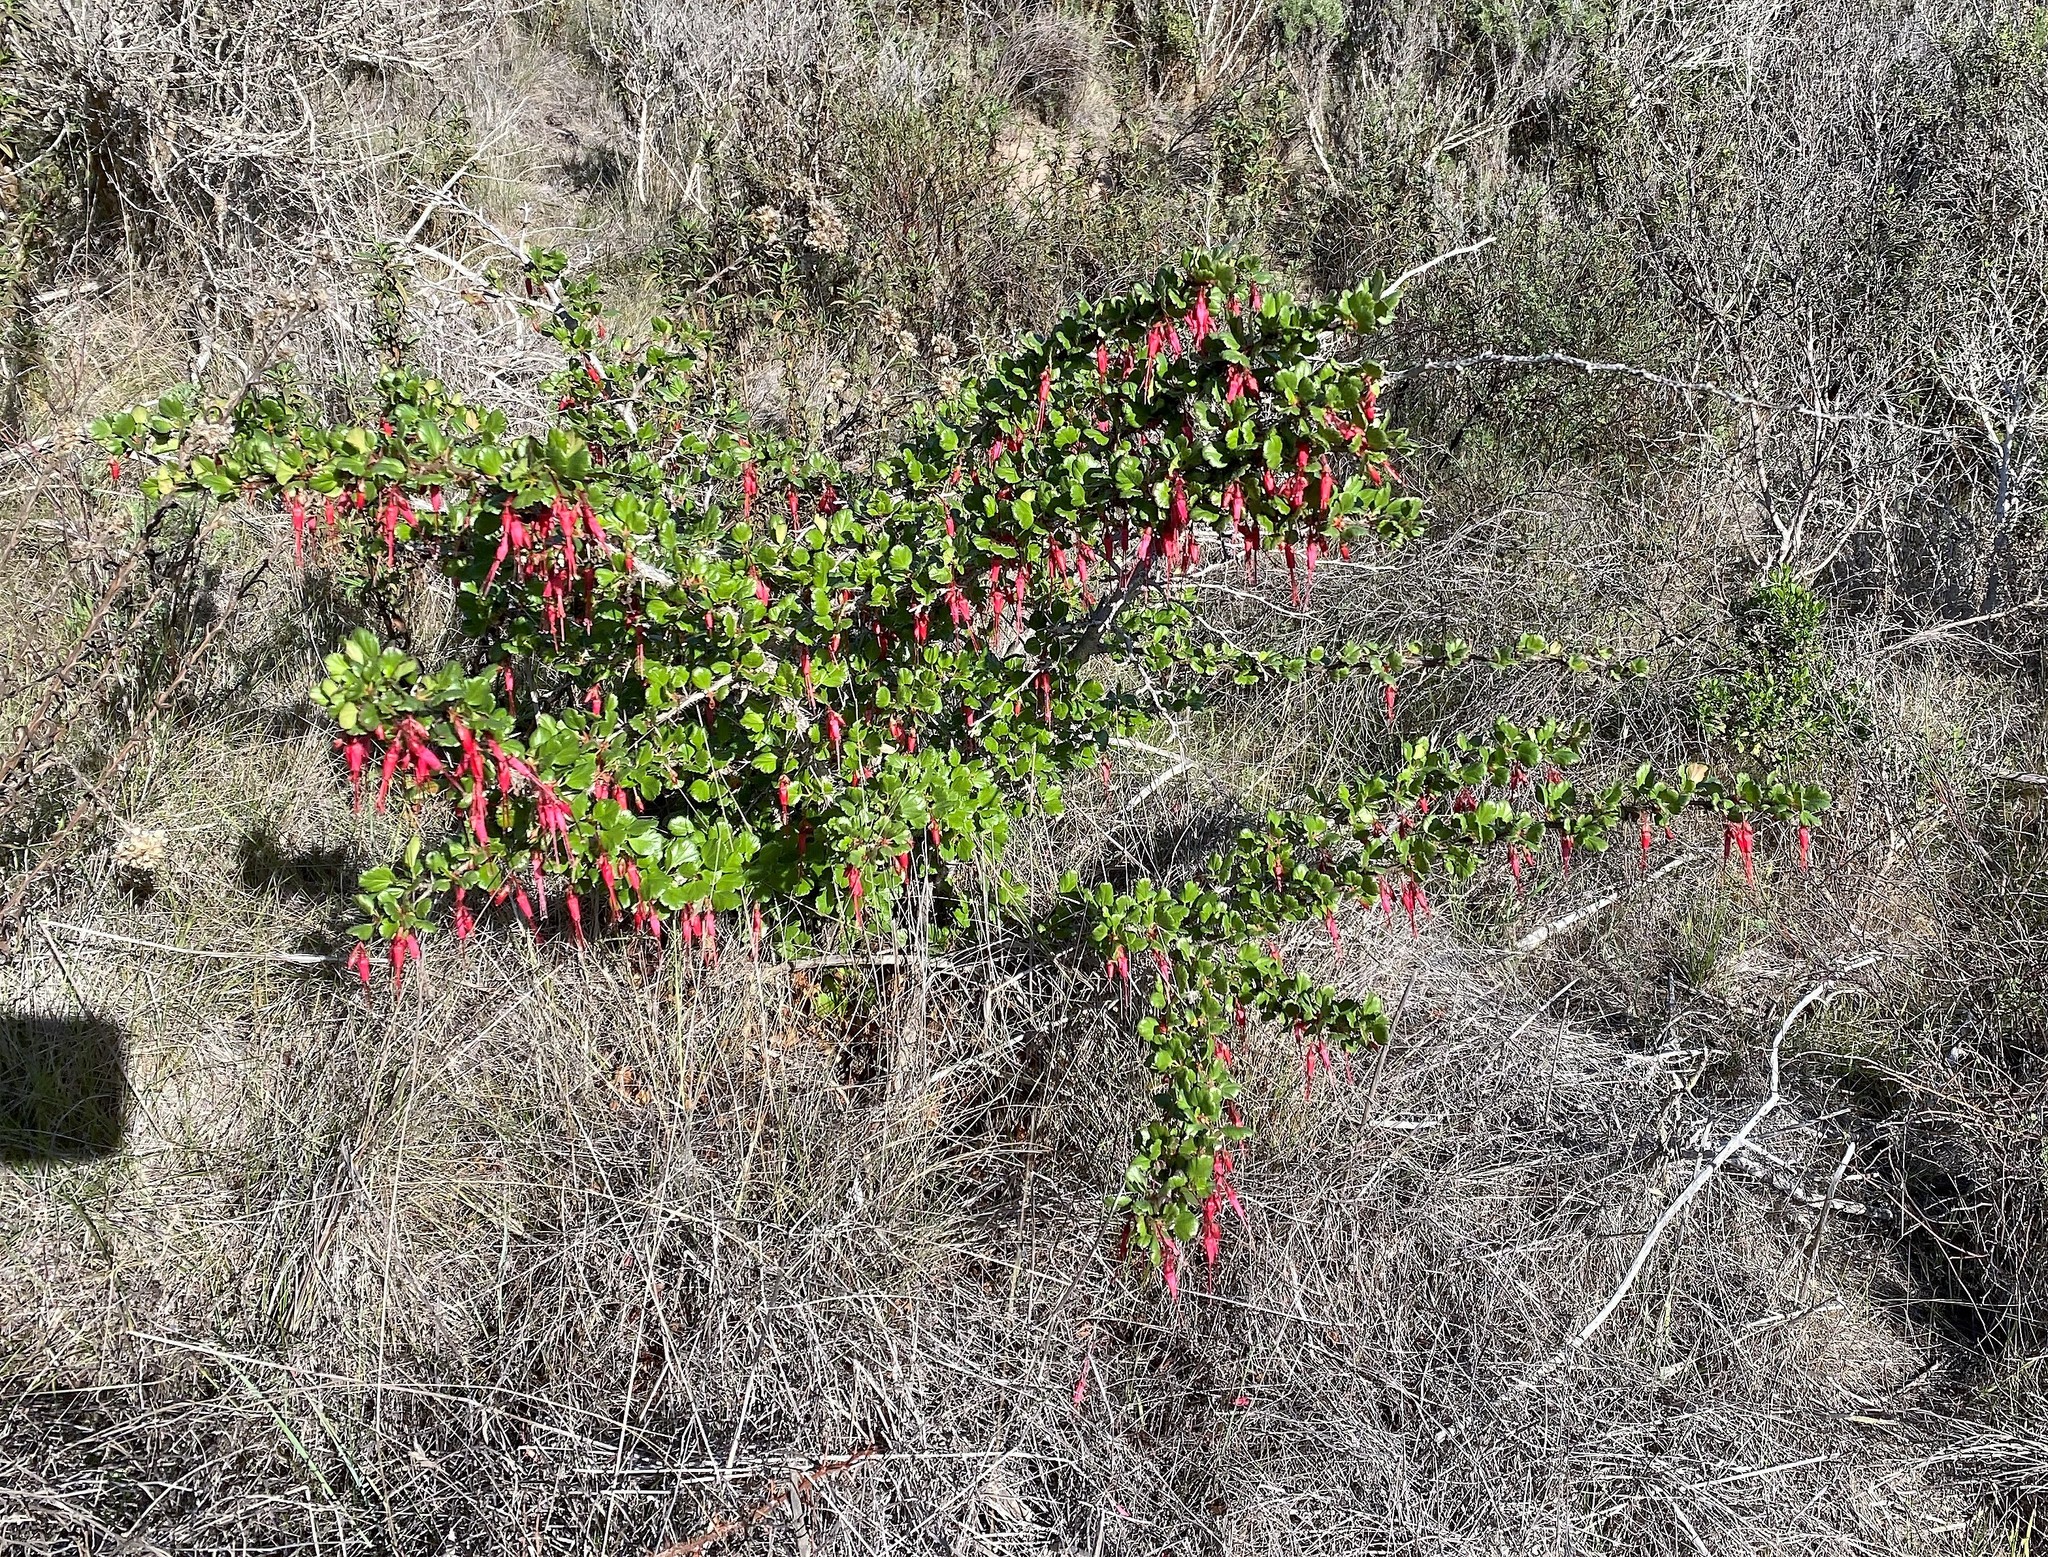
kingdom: Plantae
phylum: Tracheophyta
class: Magnoliopsida
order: Saxifragales
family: Grossulariaceae
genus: Ribes
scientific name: Ribes speciosum
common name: Fuchsia-flower gooseberry
